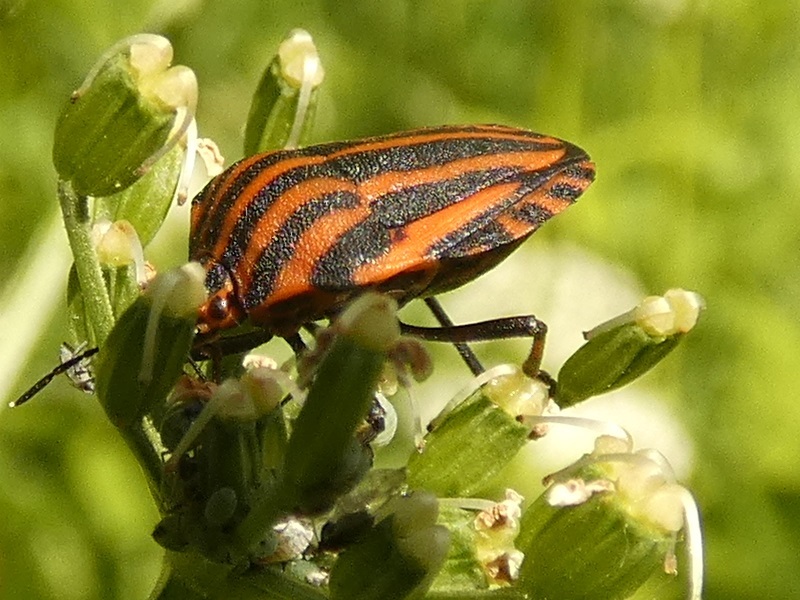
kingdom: Animalia
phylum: Arthropoda
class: Insecta
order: Hemiptera
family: Pentatomidae
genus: Graphosoma
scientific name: Graphosoma italicum
